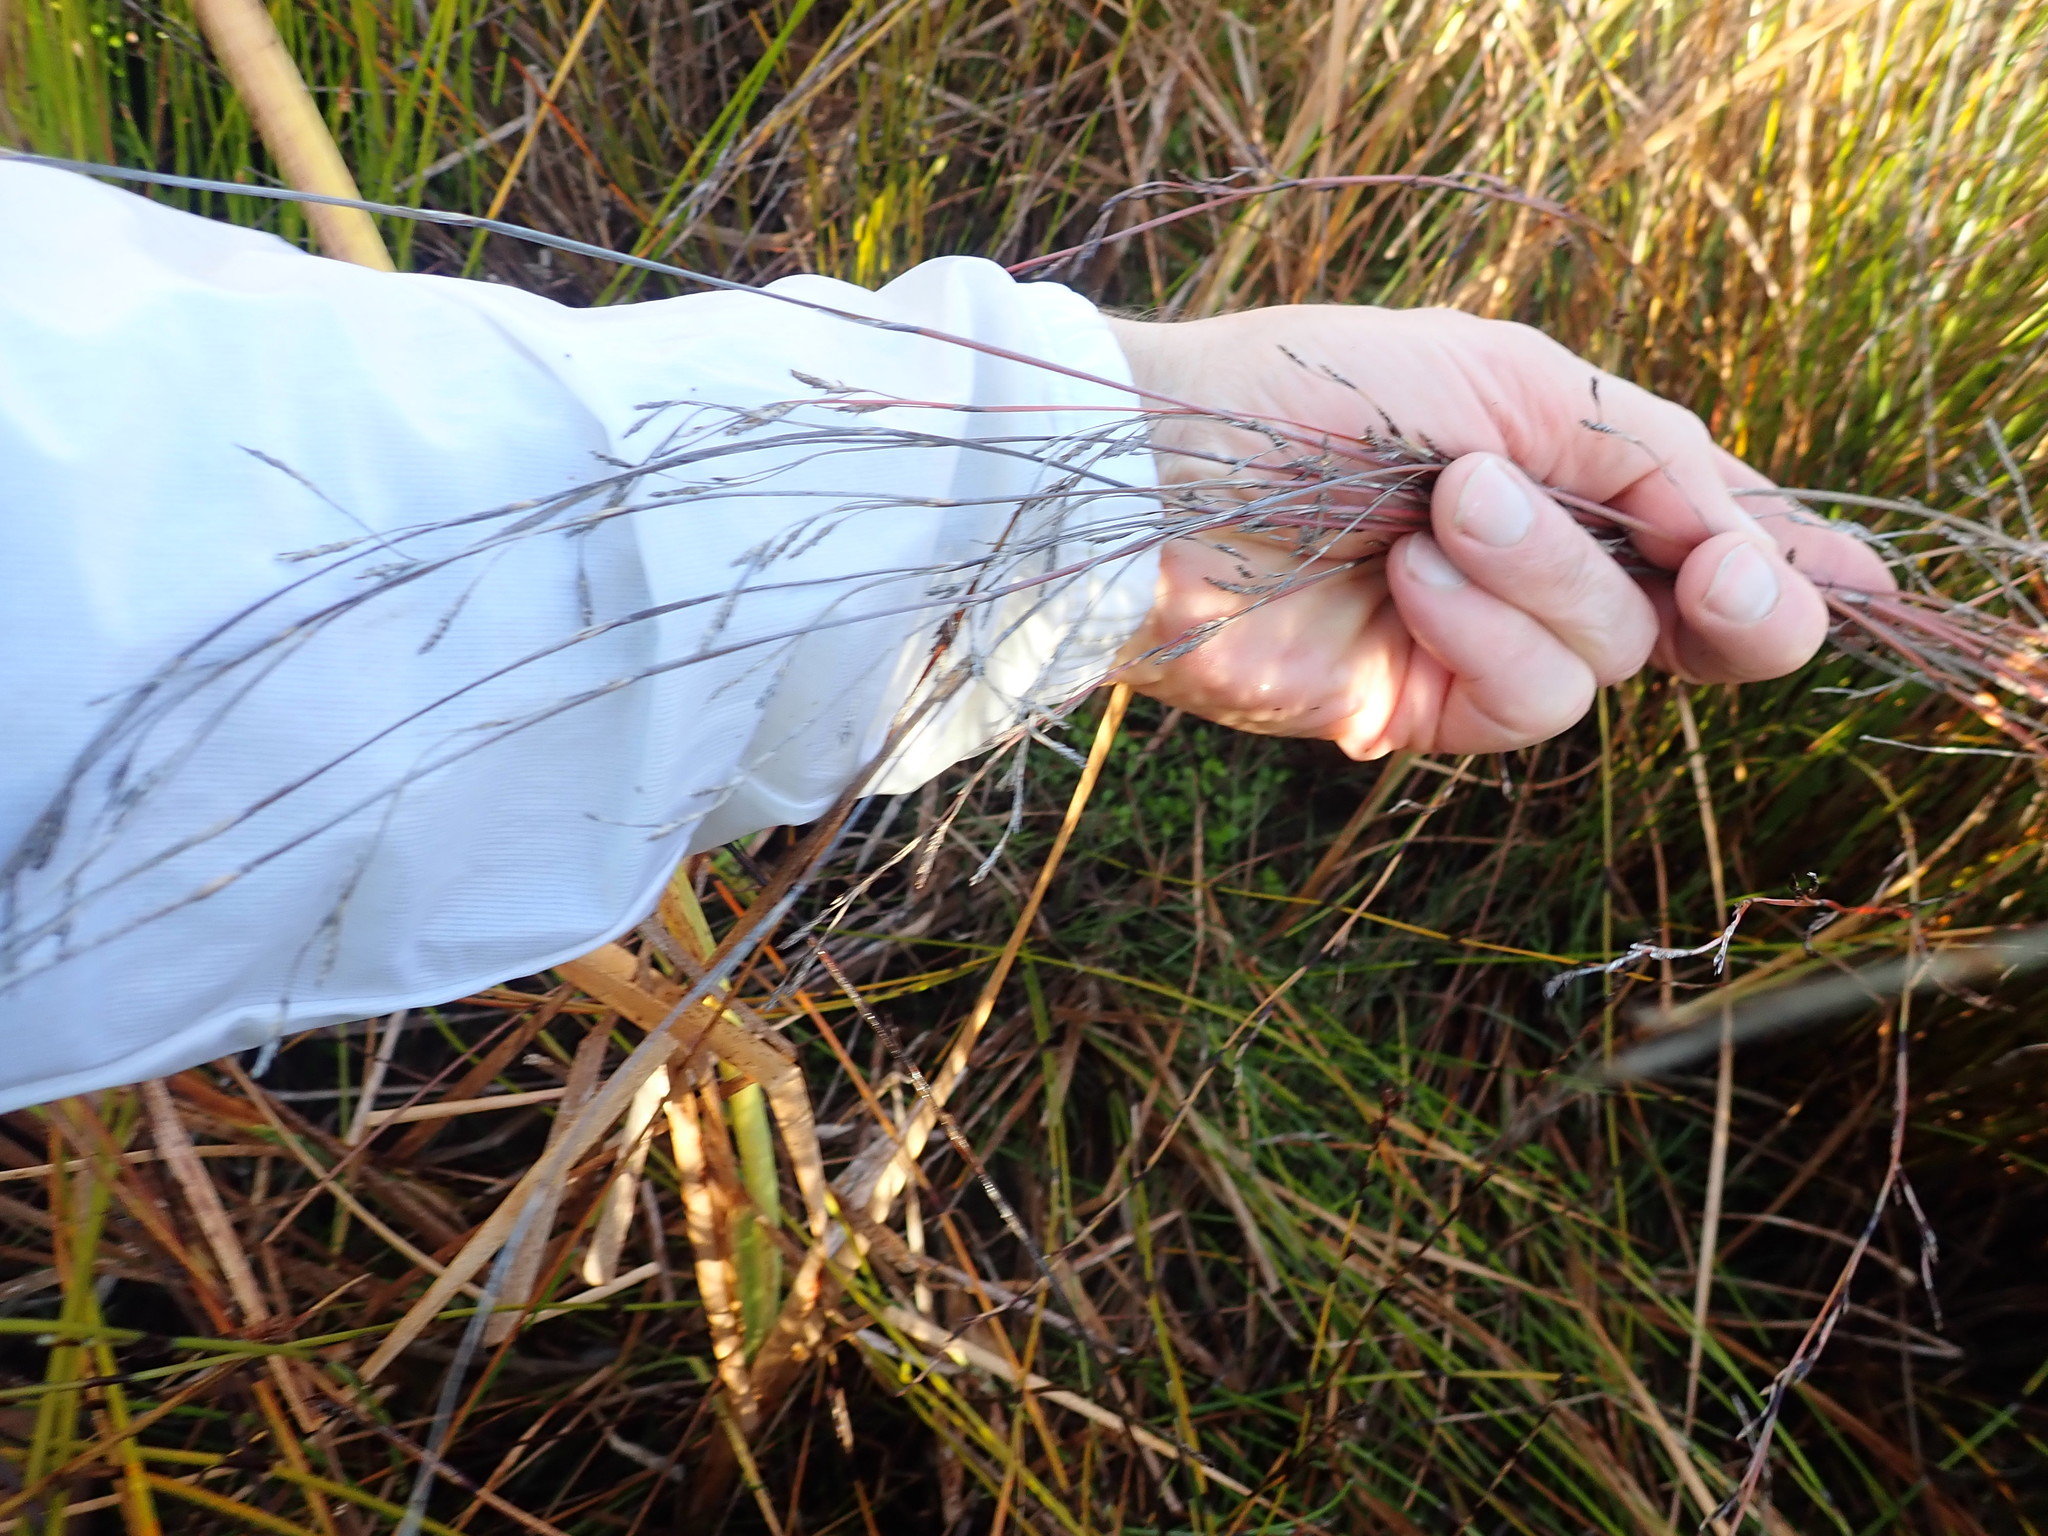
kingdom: Plantae
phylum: Tracheophyta
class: Liliopsida
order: Poales
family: Restionaceae
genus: Apodasmia
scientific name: Apodasmia similis
